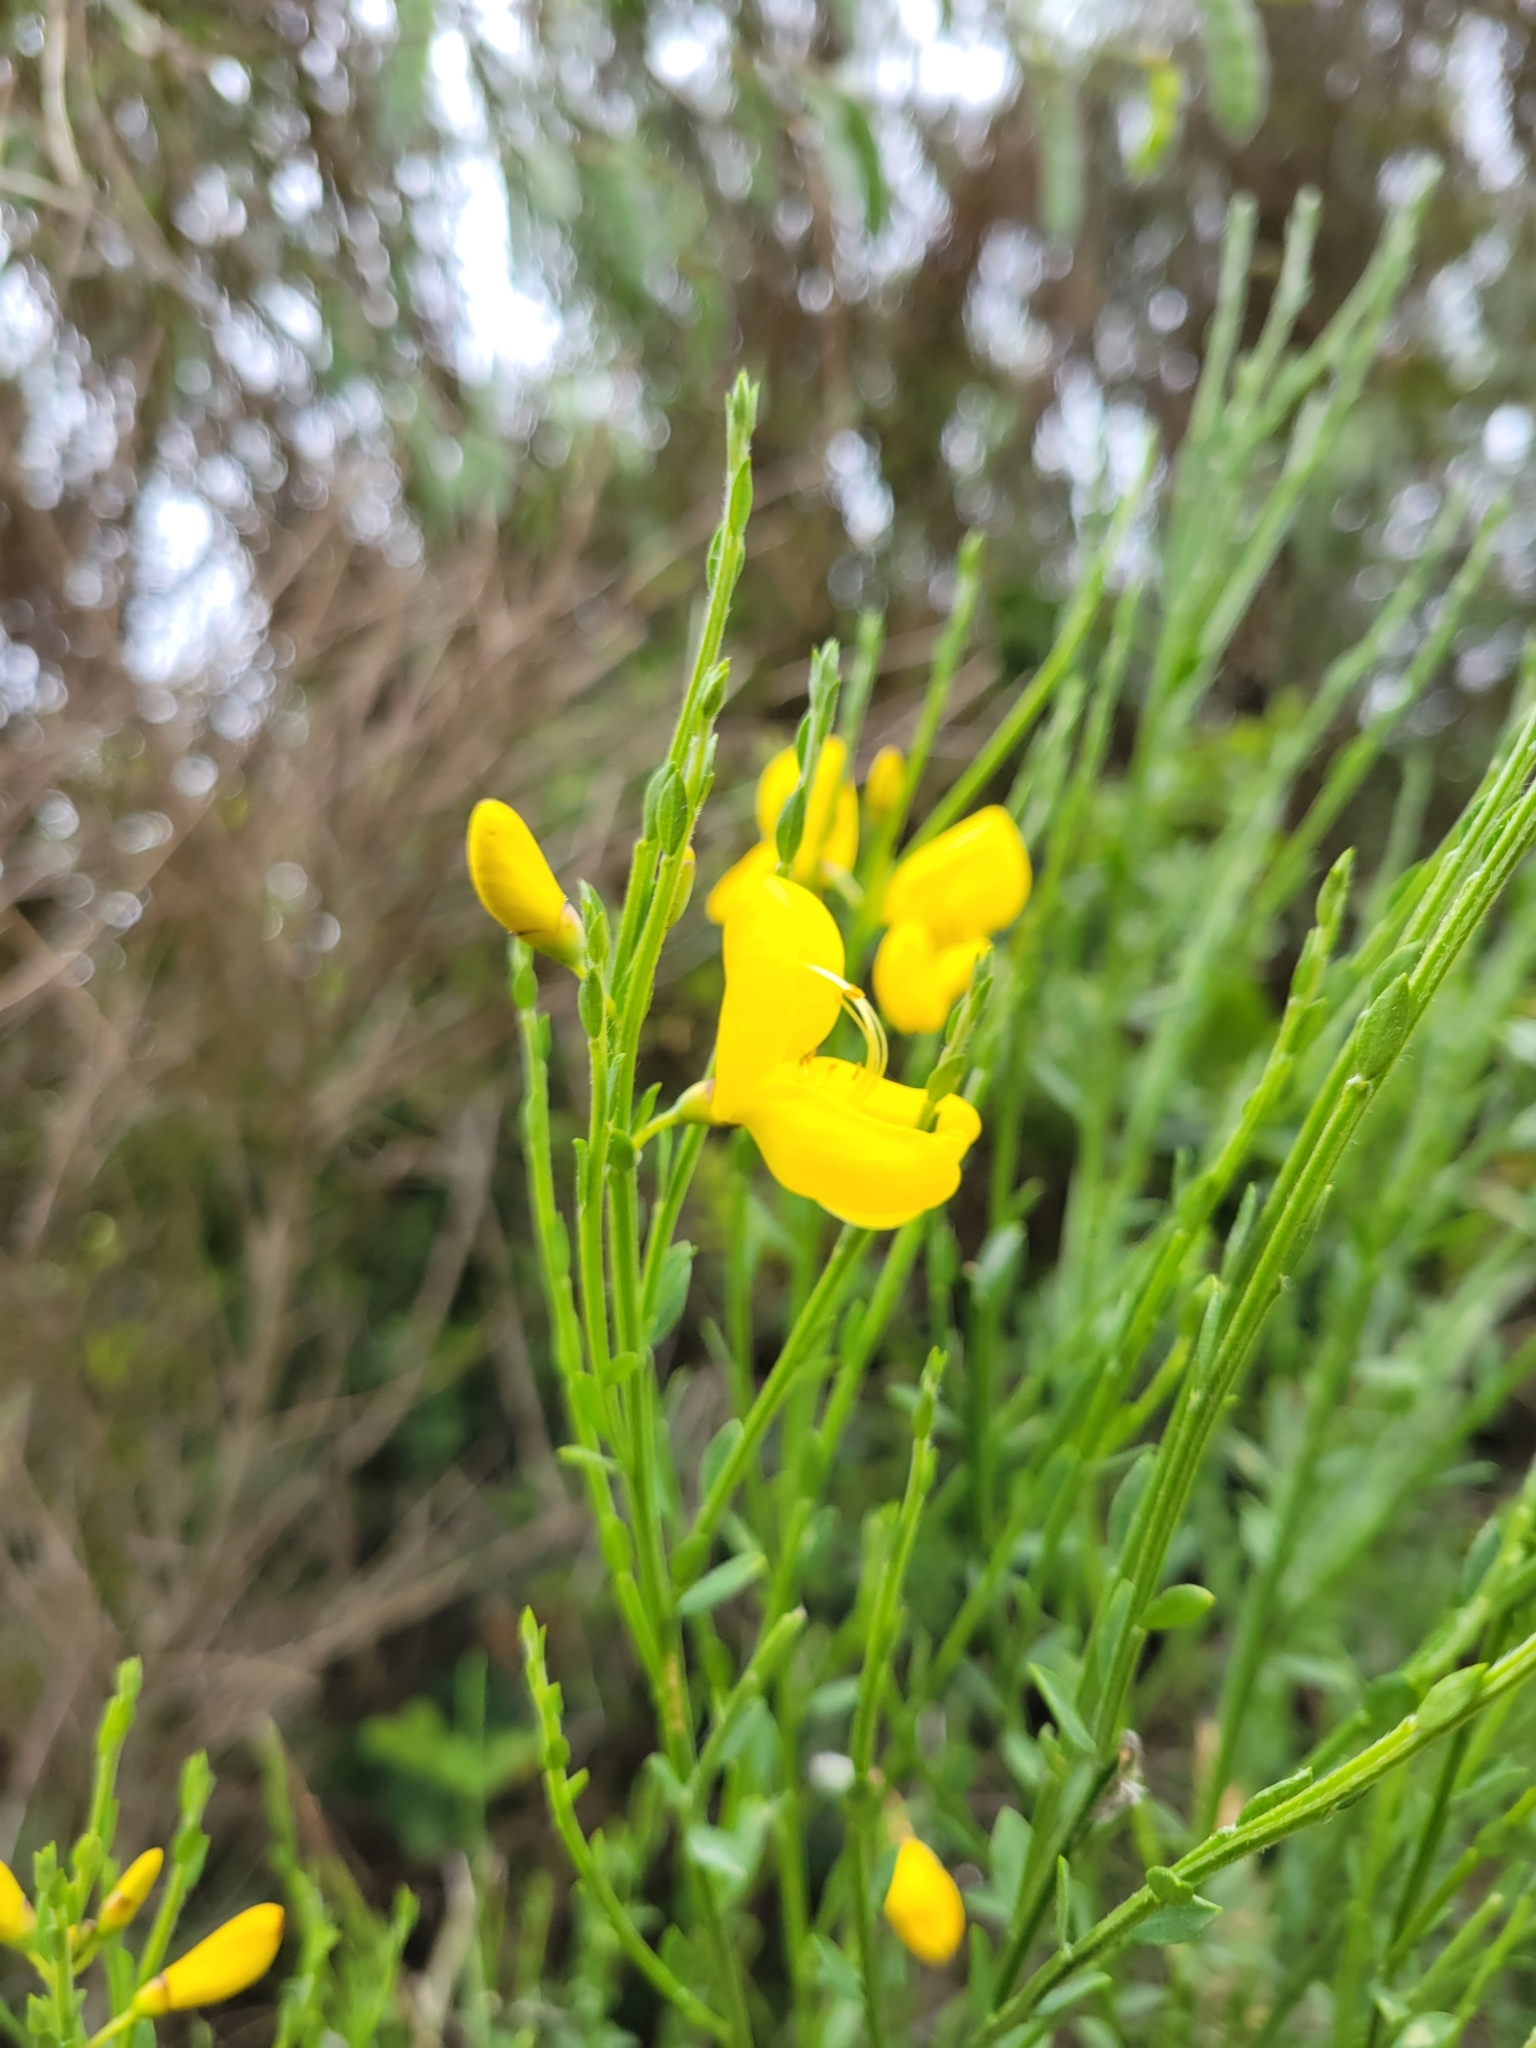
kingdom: Plantae
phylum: Tracheophyta
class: Magnoliopsida
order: Fabales
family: Fabaceae
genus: Cytisus
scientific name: Cytisus scoparius
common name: Scotch broom
